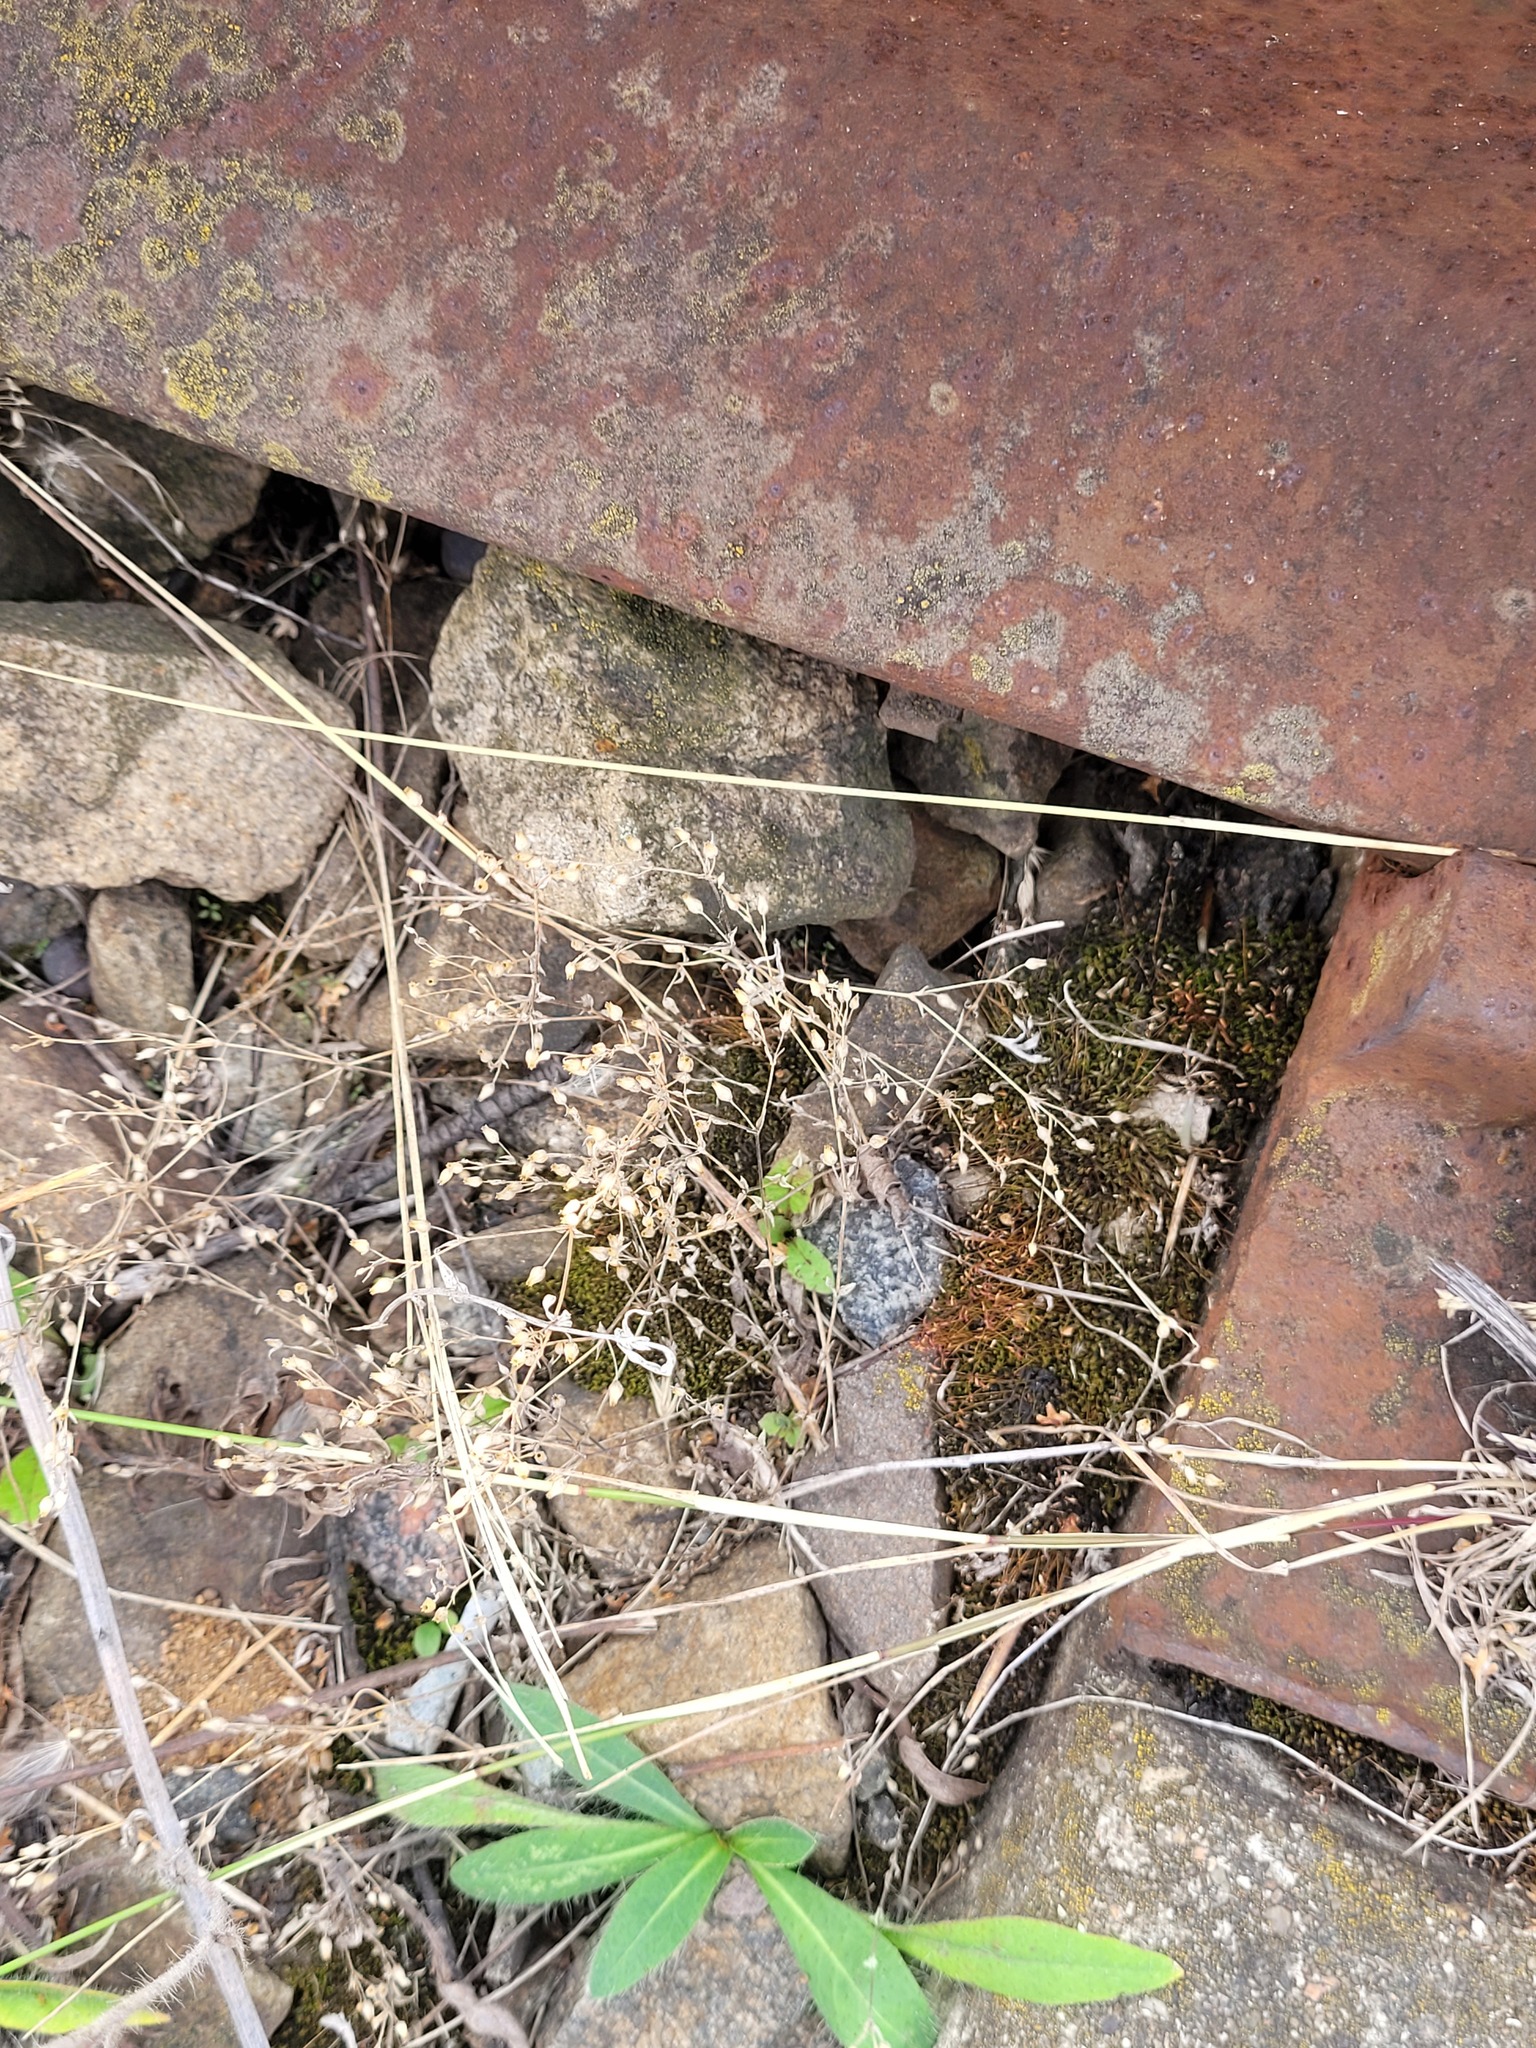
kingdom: Plantae
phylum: Tracheophyta
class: Magnoliopsida
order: Caryophyllales
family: Caryophyllaceae
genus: Arenaria
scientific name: Arenaria serpyllifolia
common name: Thyme-leaved sandwort
